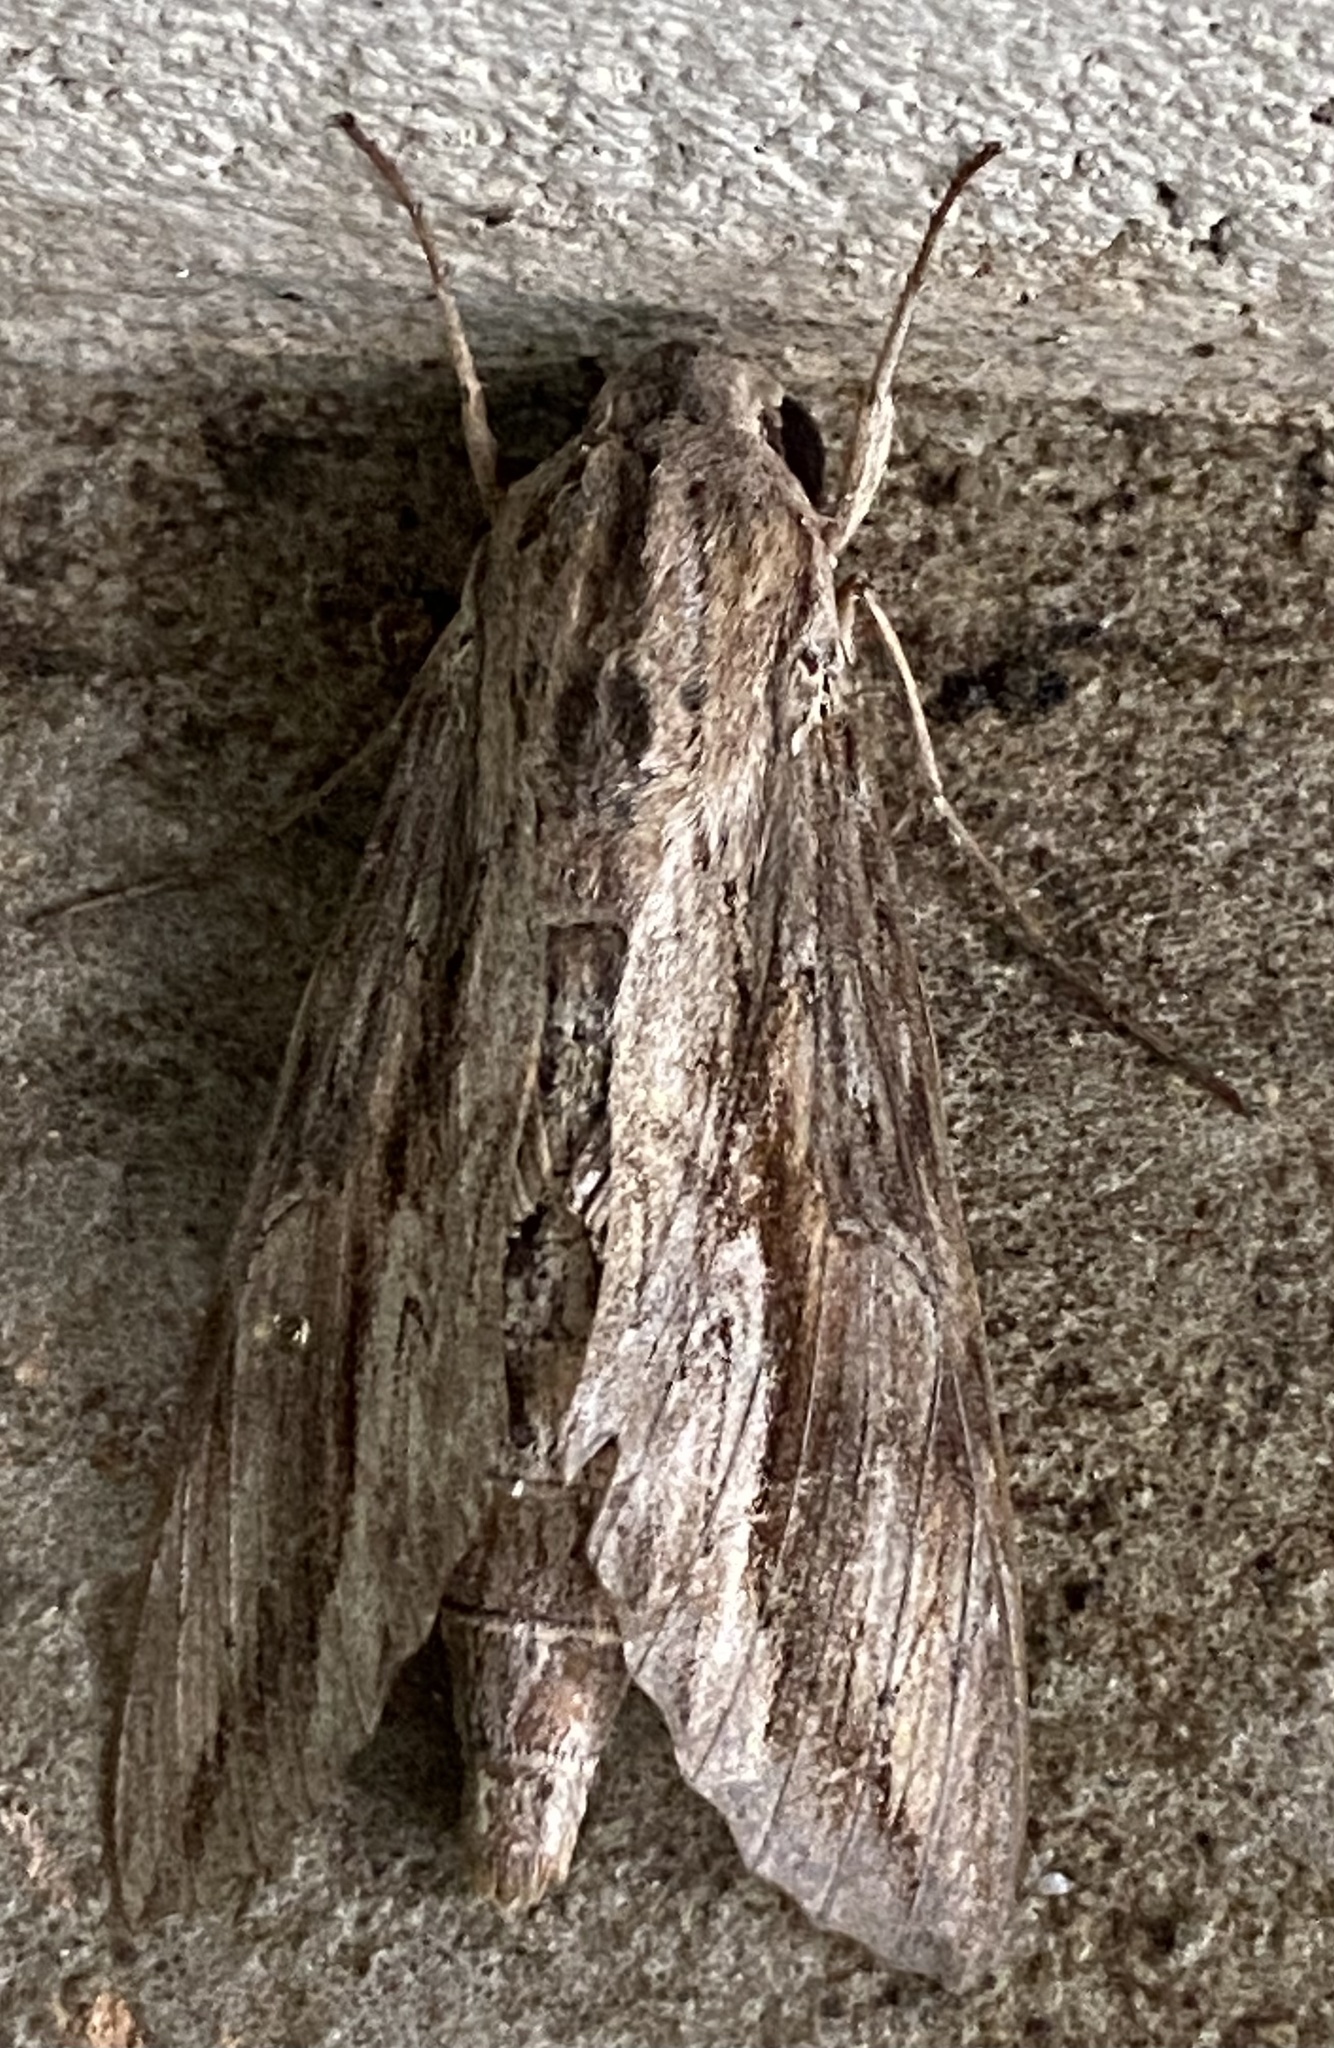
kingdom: Animalia
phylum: Arthropoda
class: Insecta
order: Lepidoptera
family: Sphingidae
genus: Erinnyis
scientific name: Erinnyis ello
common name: Ello sphinx
